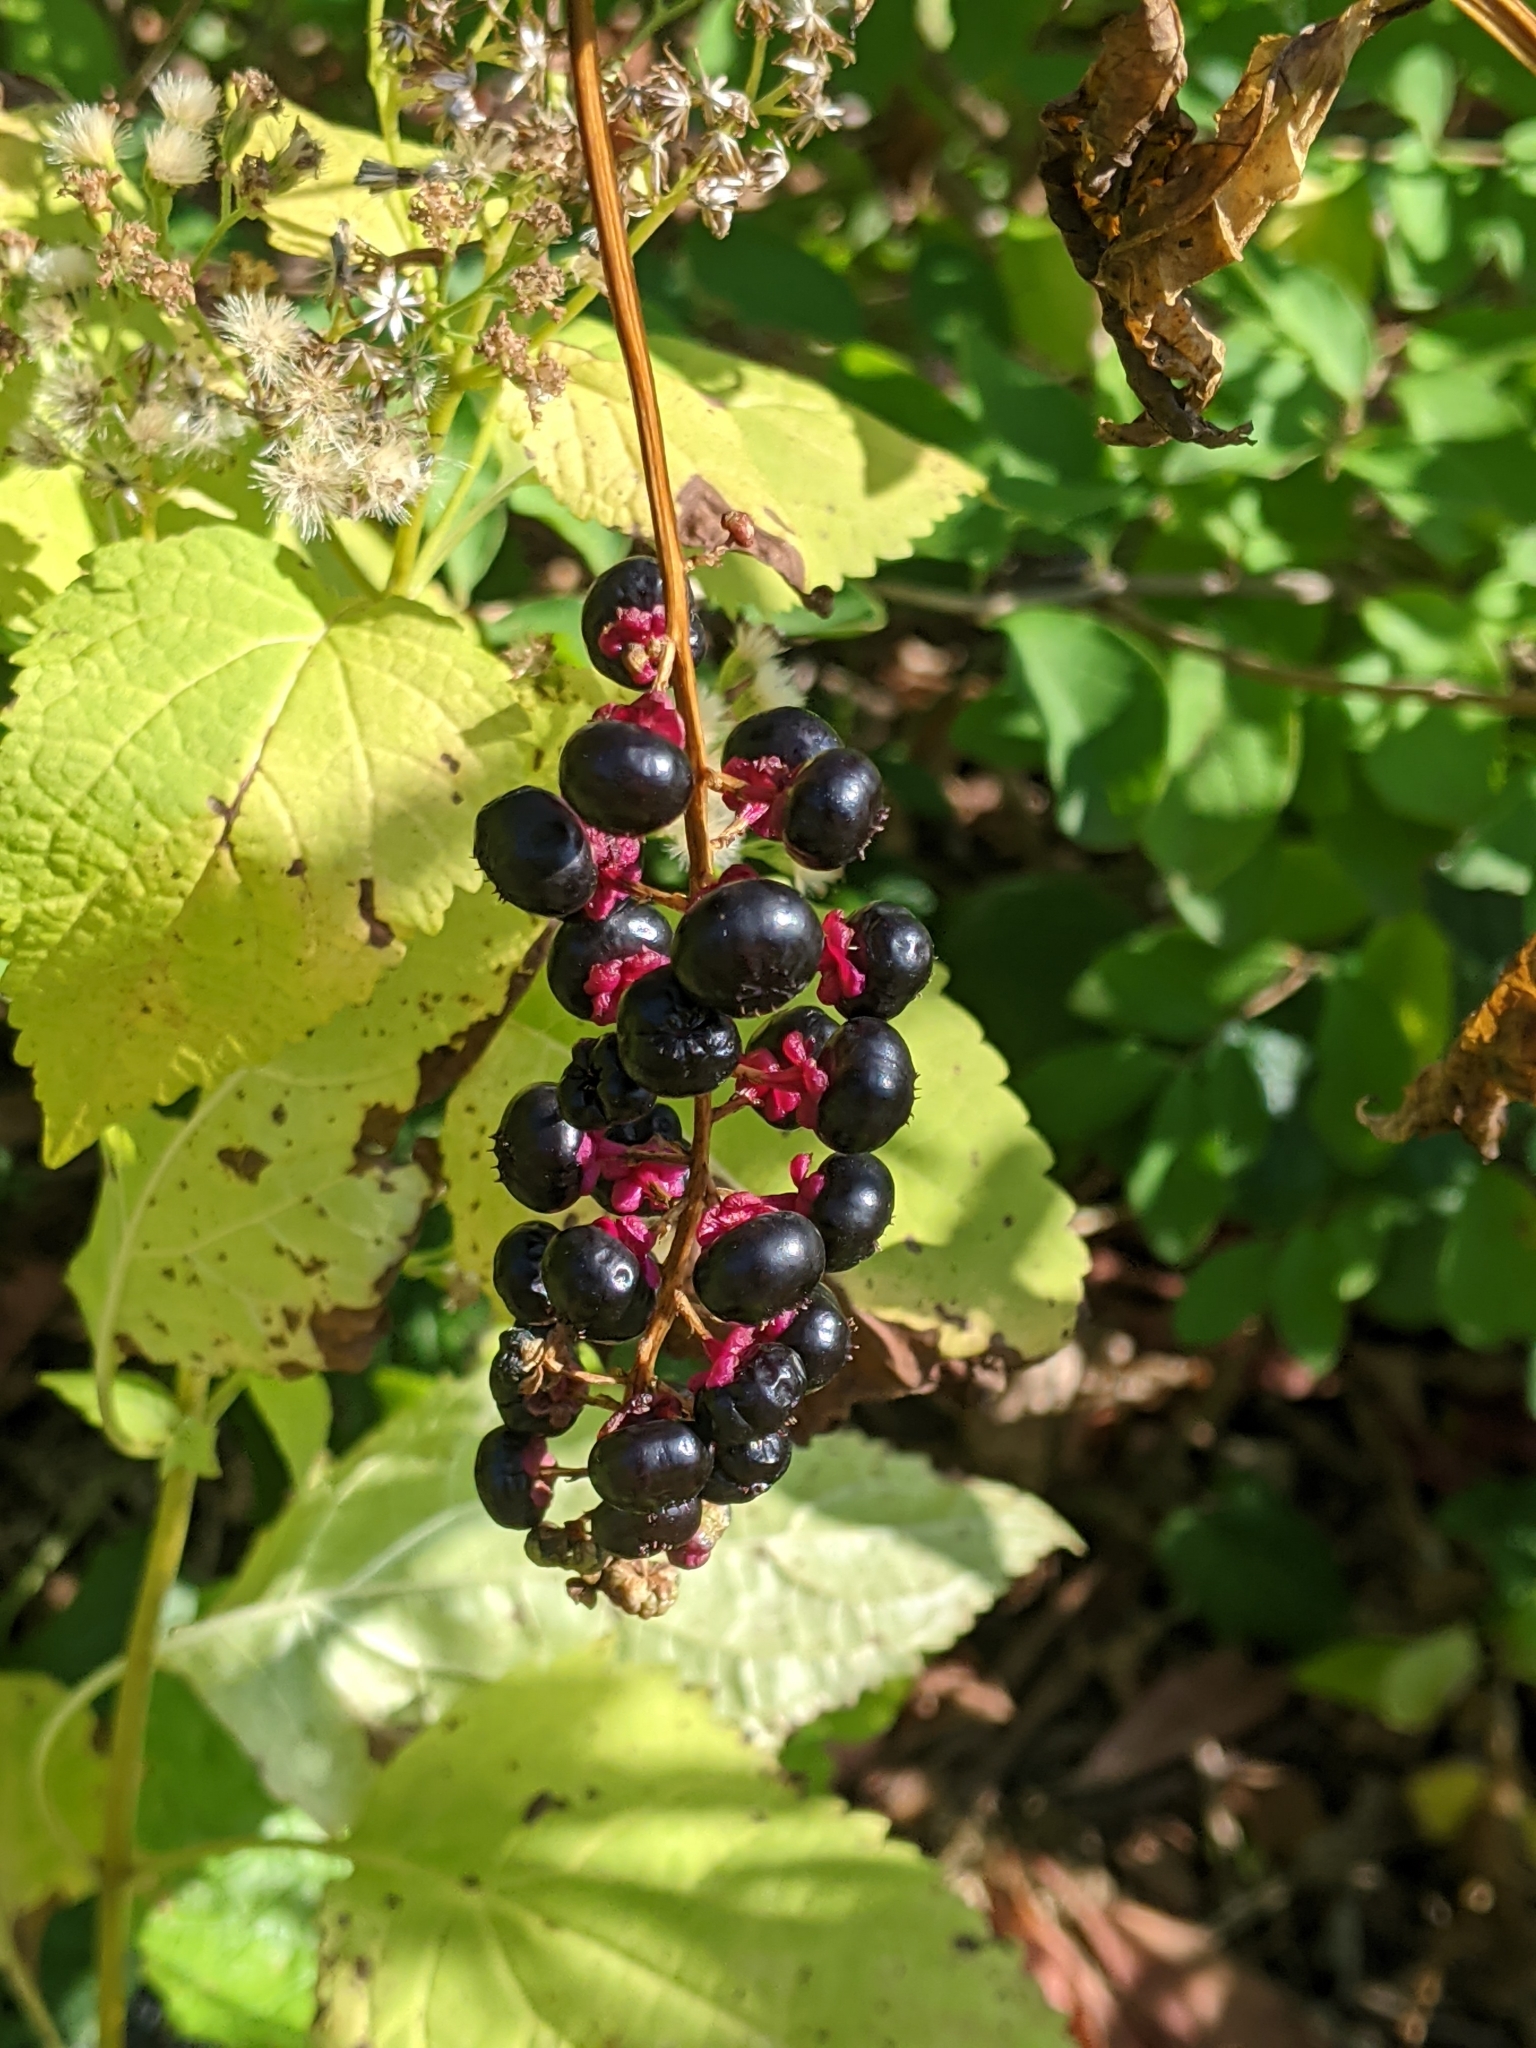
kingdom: Plantae
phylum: Tracheophyta
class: Magnoliopsida
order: Caryophyllales
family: Phytolaccaceae
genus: Phytolacca
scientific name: Phytolacca americana
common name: American pokeweed
